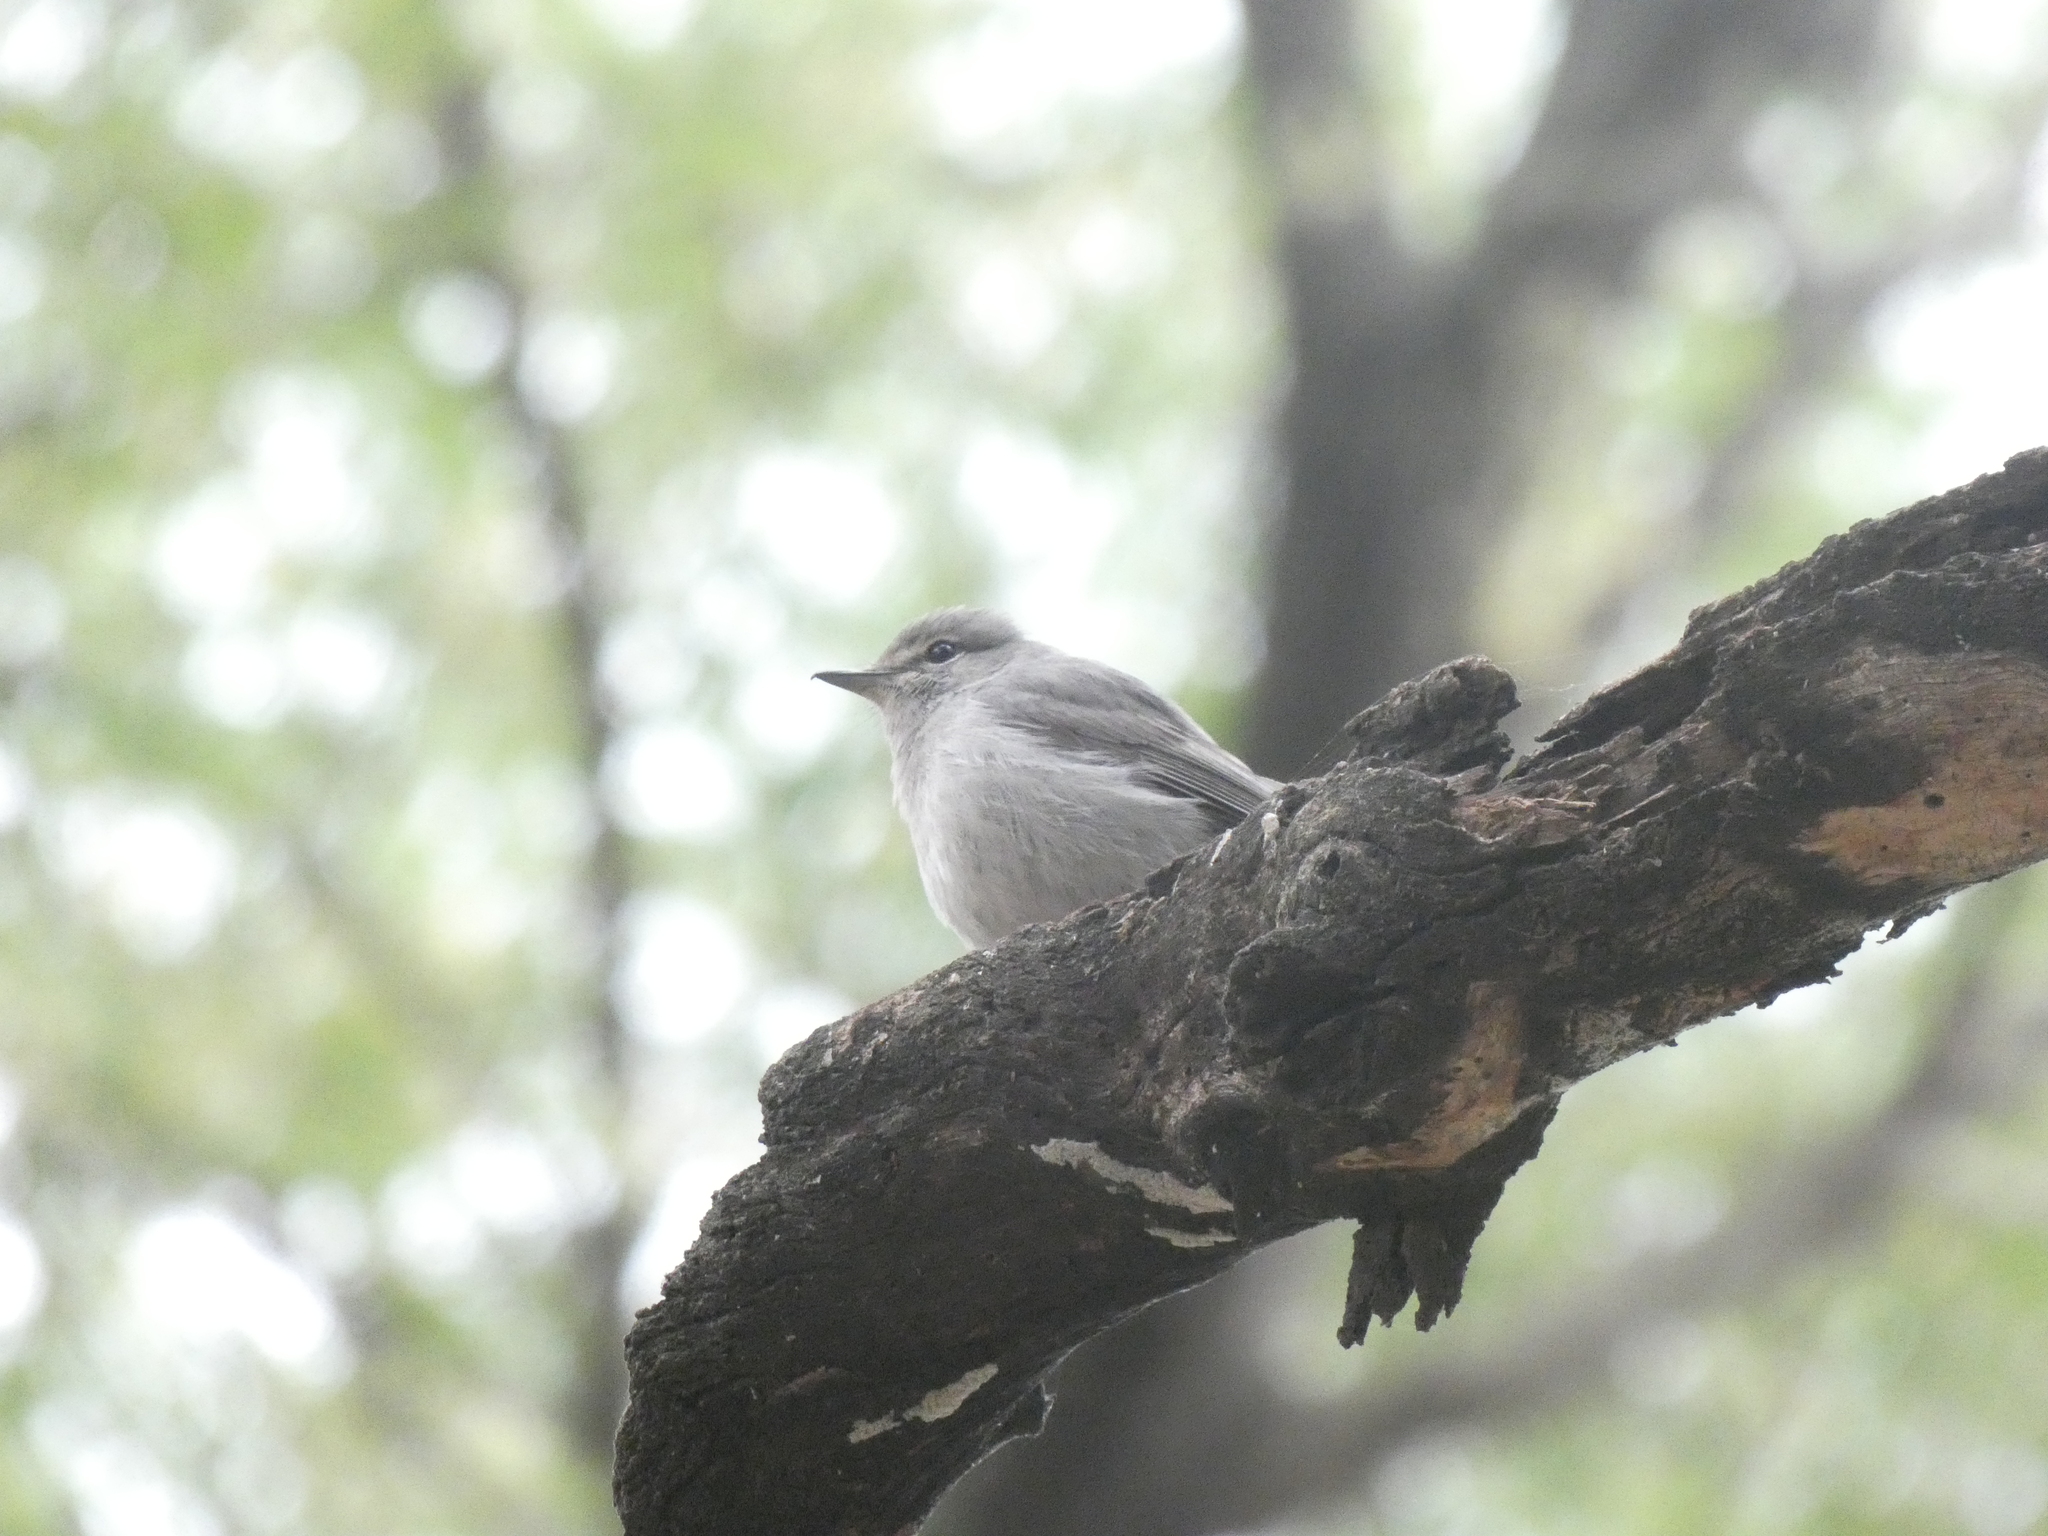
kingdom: Animalia
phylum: Chordata
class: Aves
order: Passeriformes
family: Muscicapidae
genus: Muscicapa
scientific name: Muscicapa caerulescens
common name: Ashy flycatcher
